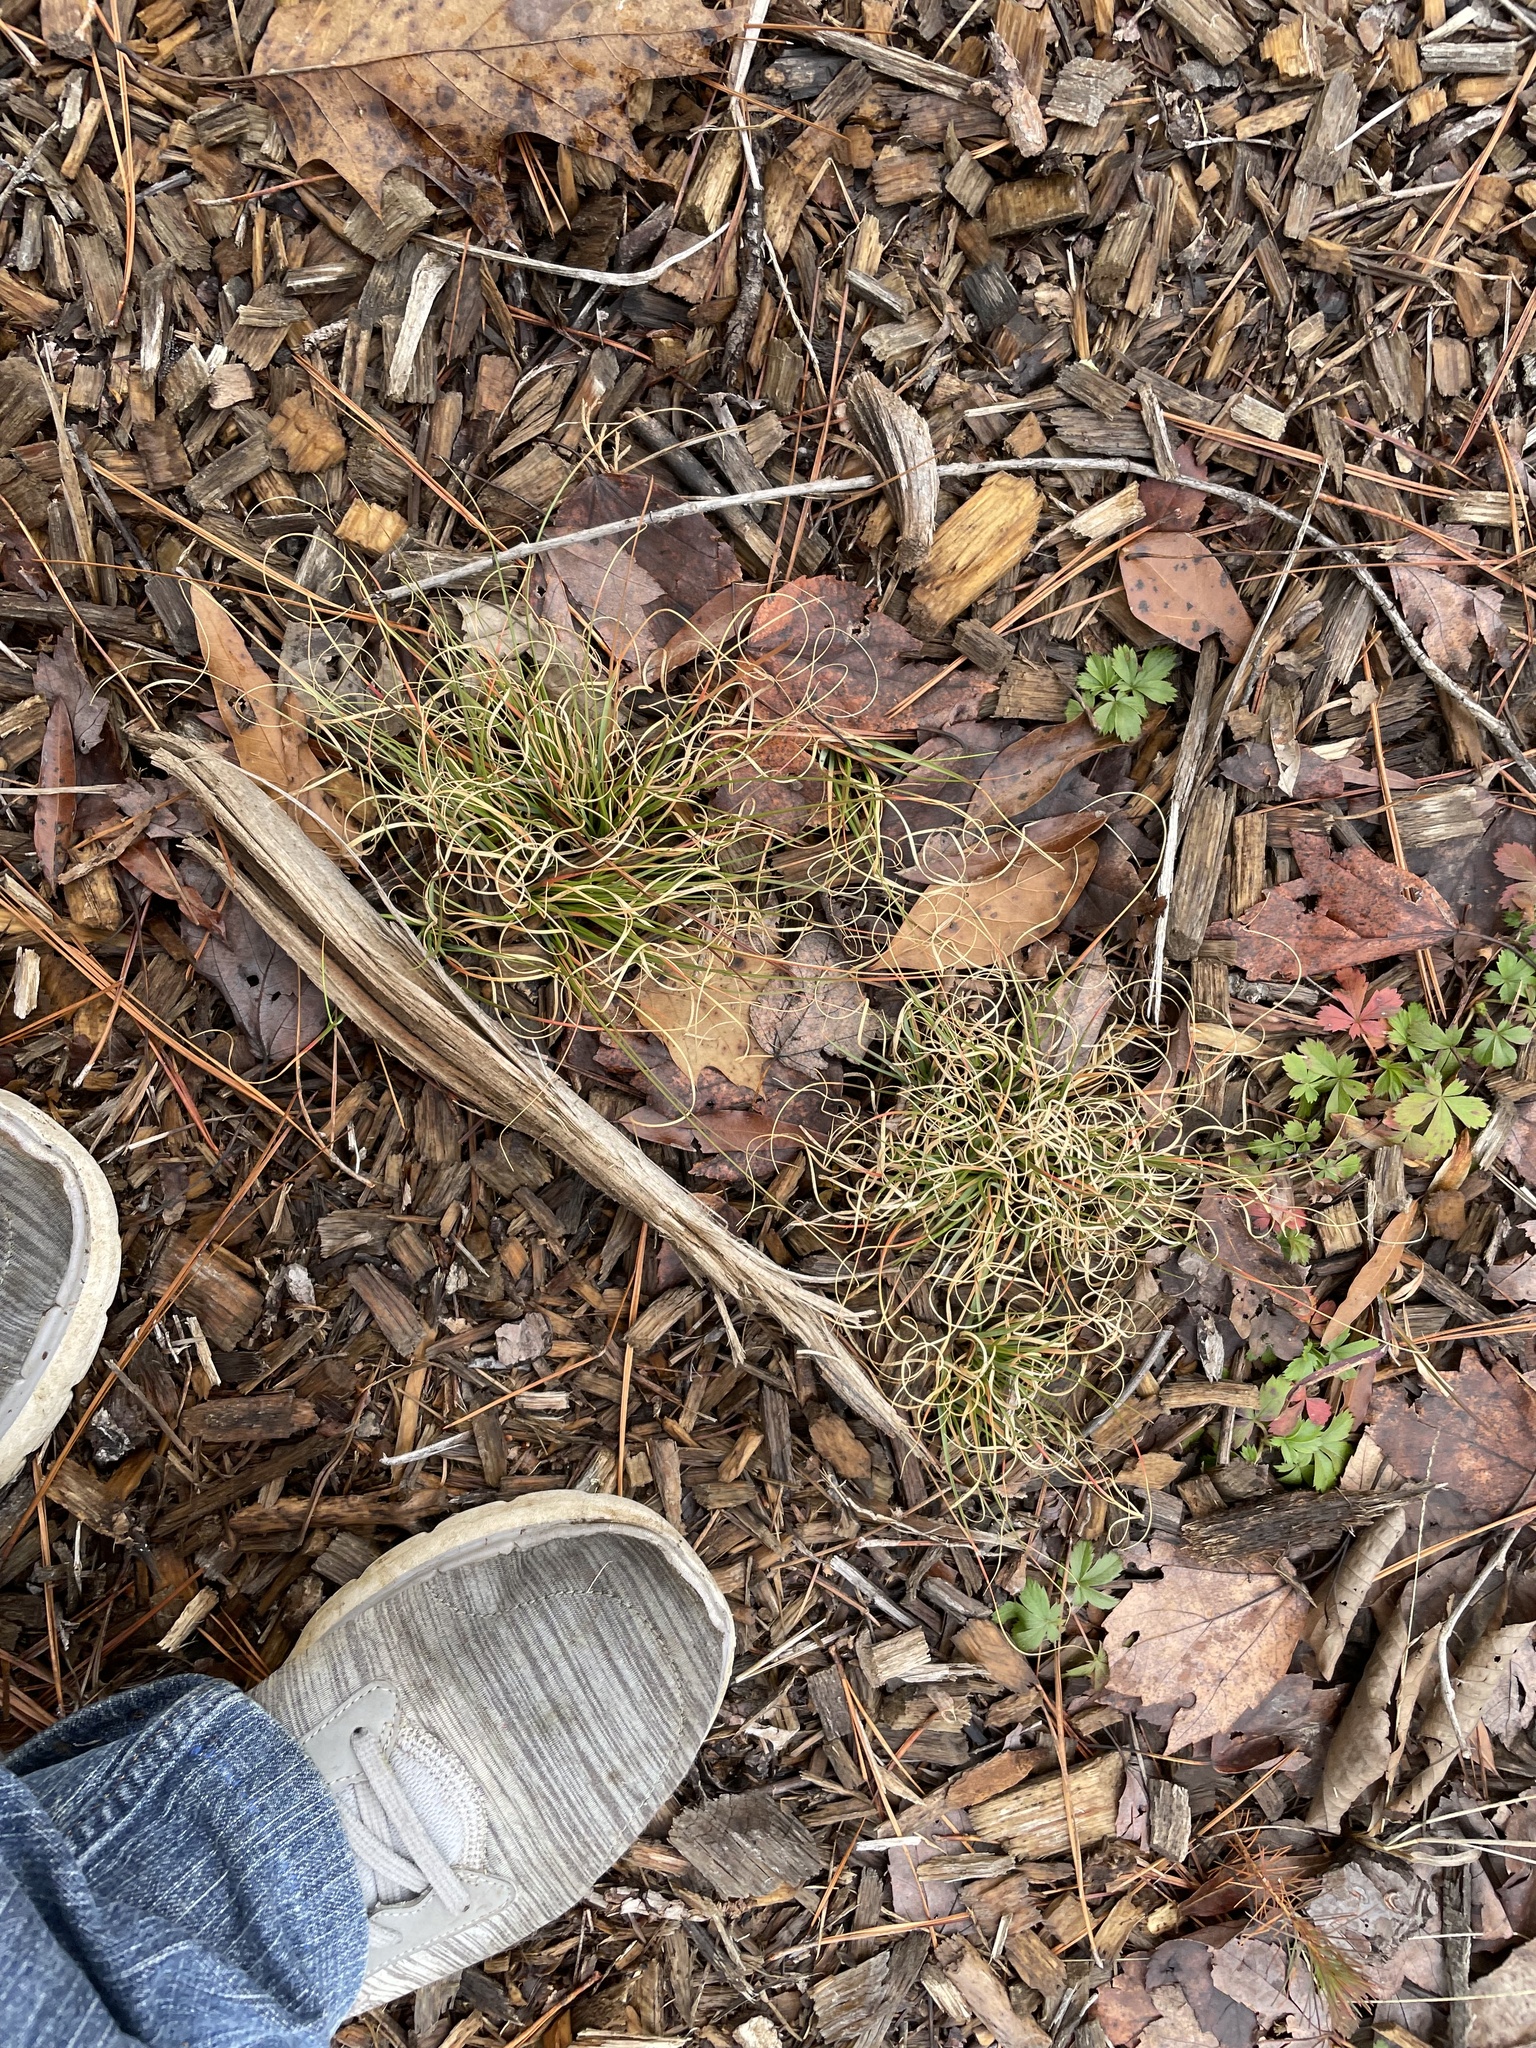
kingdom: Plantae
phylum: Tracheophyta
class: Liliopsida
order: Poales
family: Poaceae
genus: Danthonia
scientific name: Danthonia spicata
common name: Common wild oatgrass
